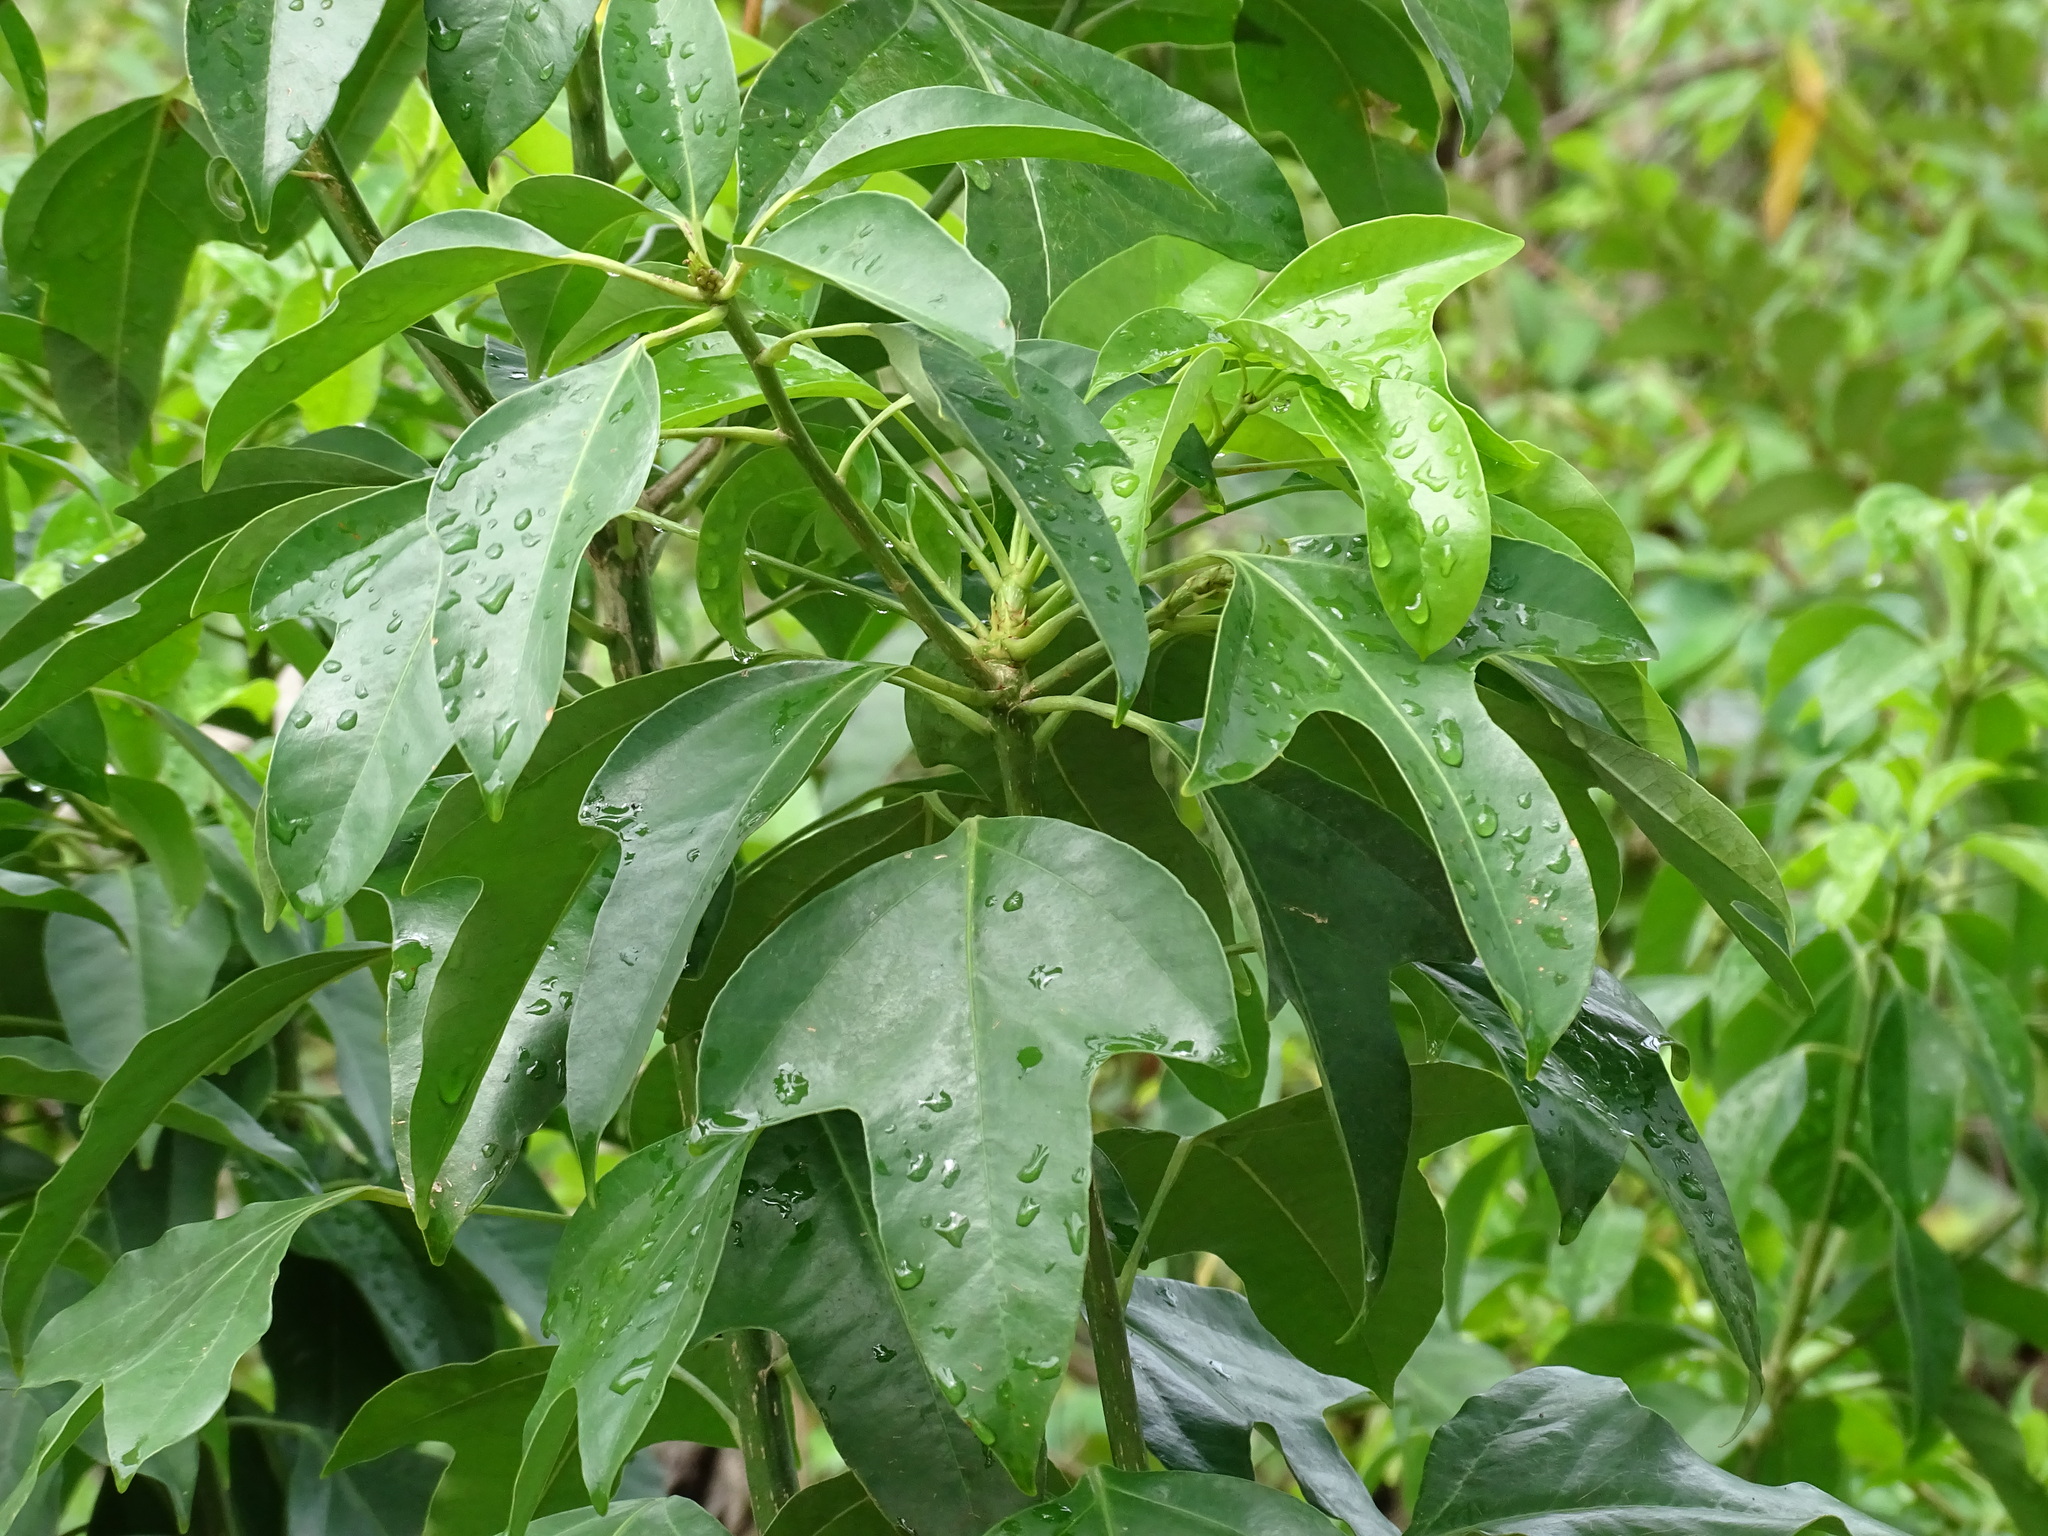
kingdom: Plantae
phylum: Tracheophyta
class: Magnoliopsida
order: Apiales
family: Araliaceae
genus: Dendropanax
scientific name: Dendropanax arboreus
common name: Potato-wood
